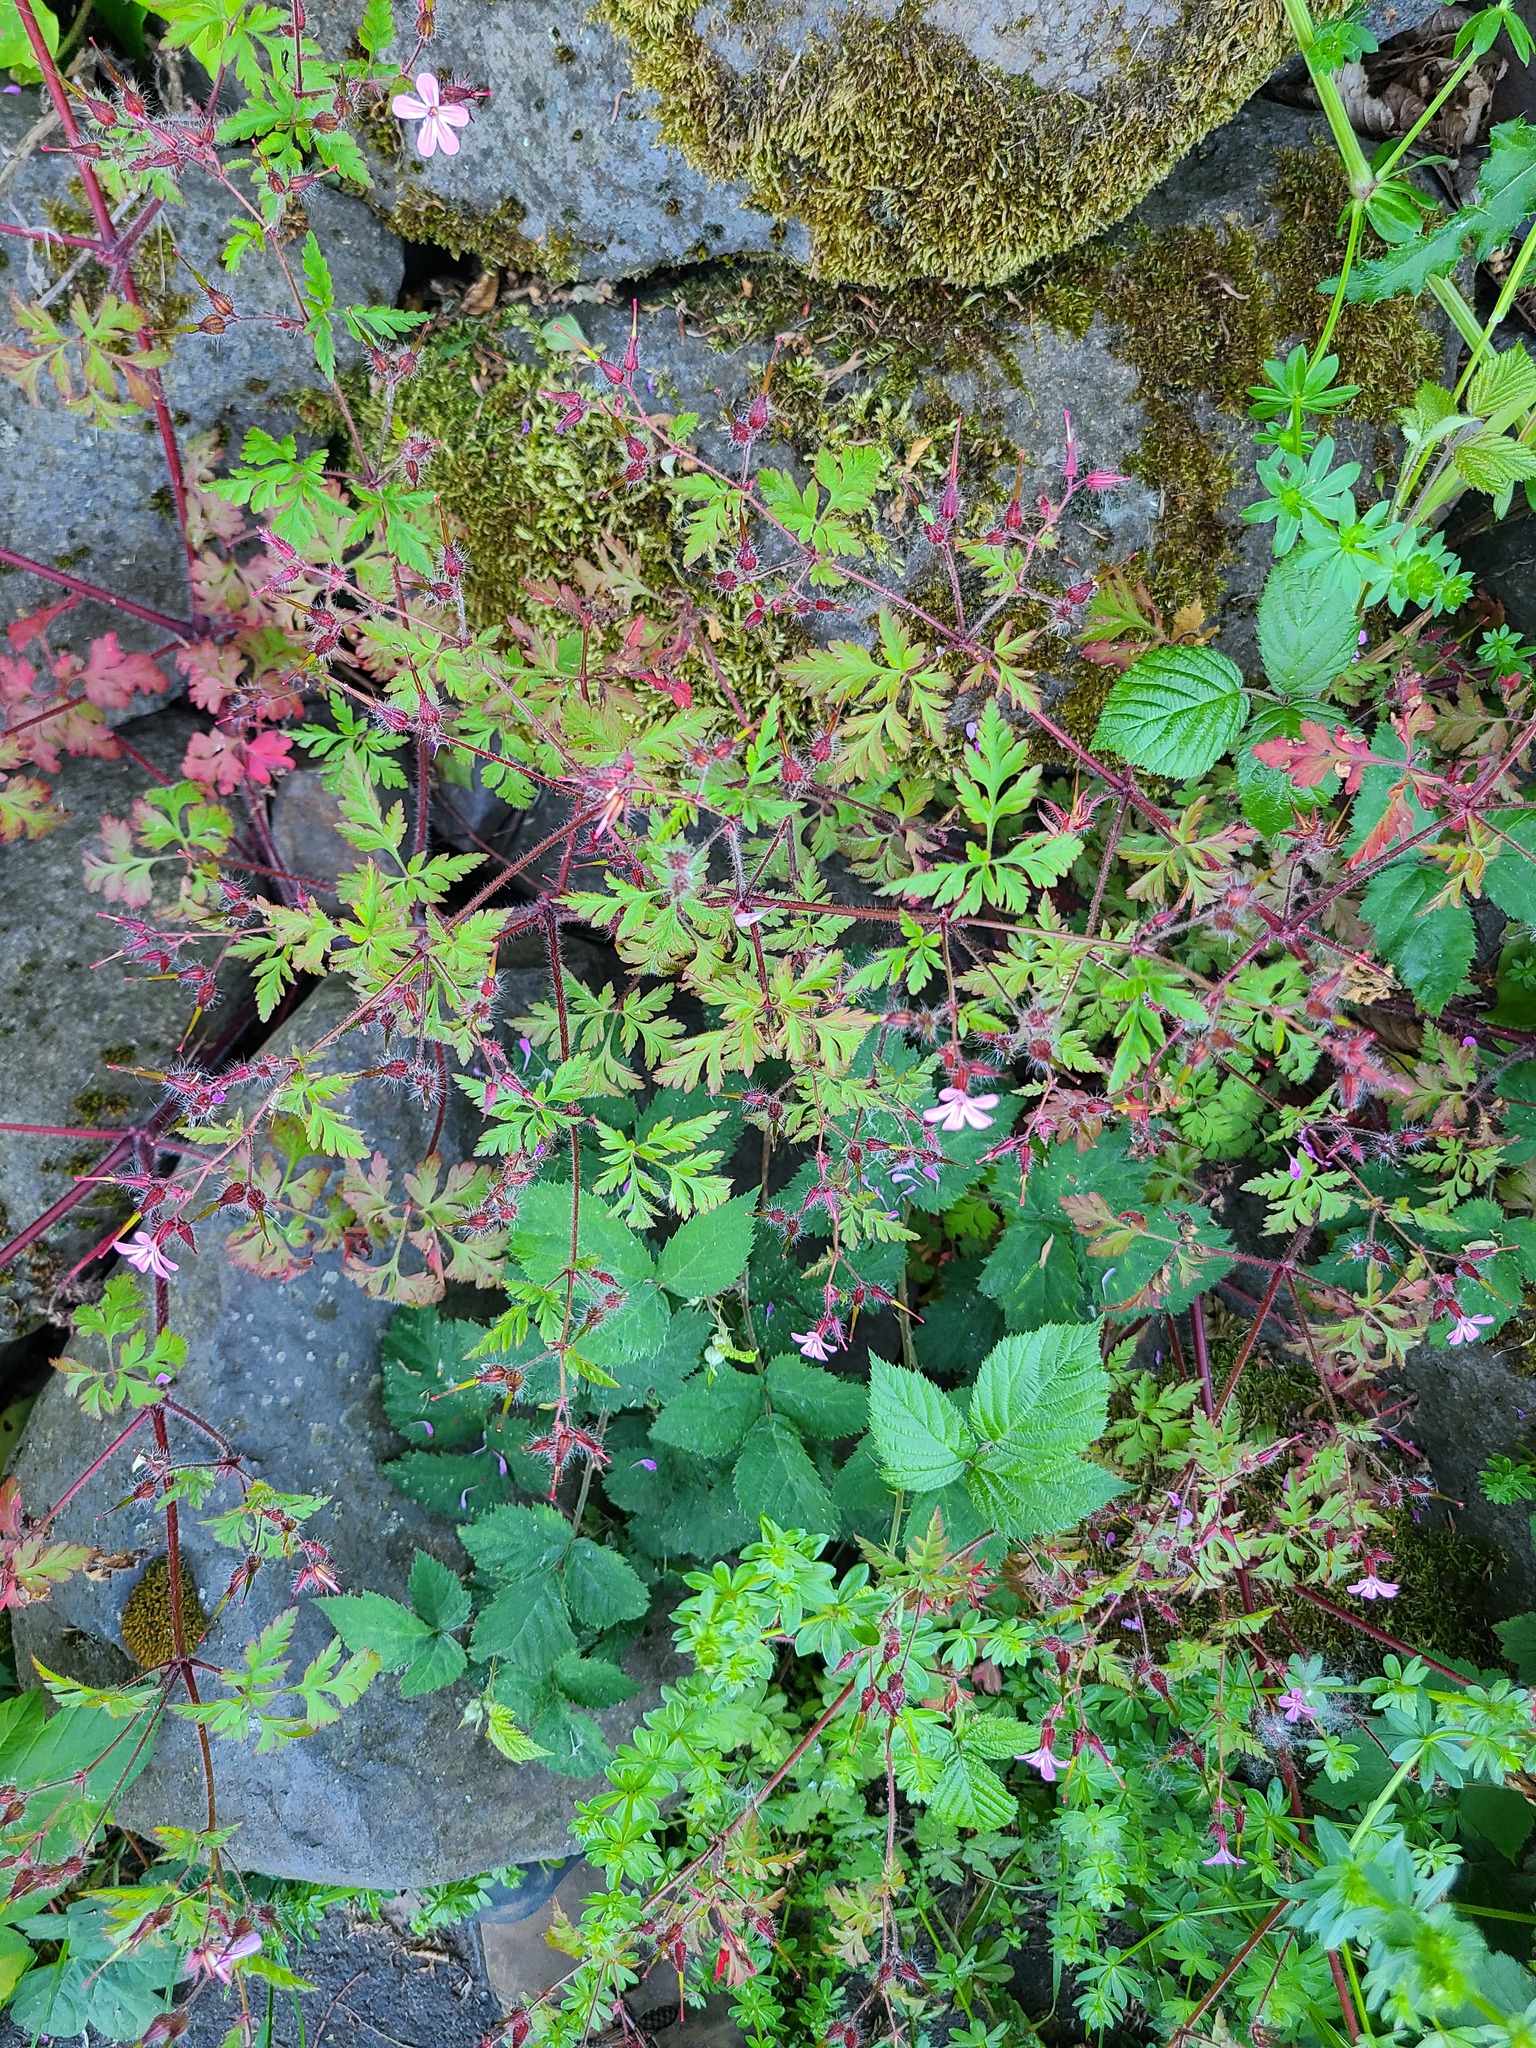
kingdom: Plantae
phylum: Tracheophyta
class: Magnoliopsida
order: Geraniales
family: Geraniaceae
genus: Geranium
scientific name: Geranium robertianum
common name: Herb-robert
